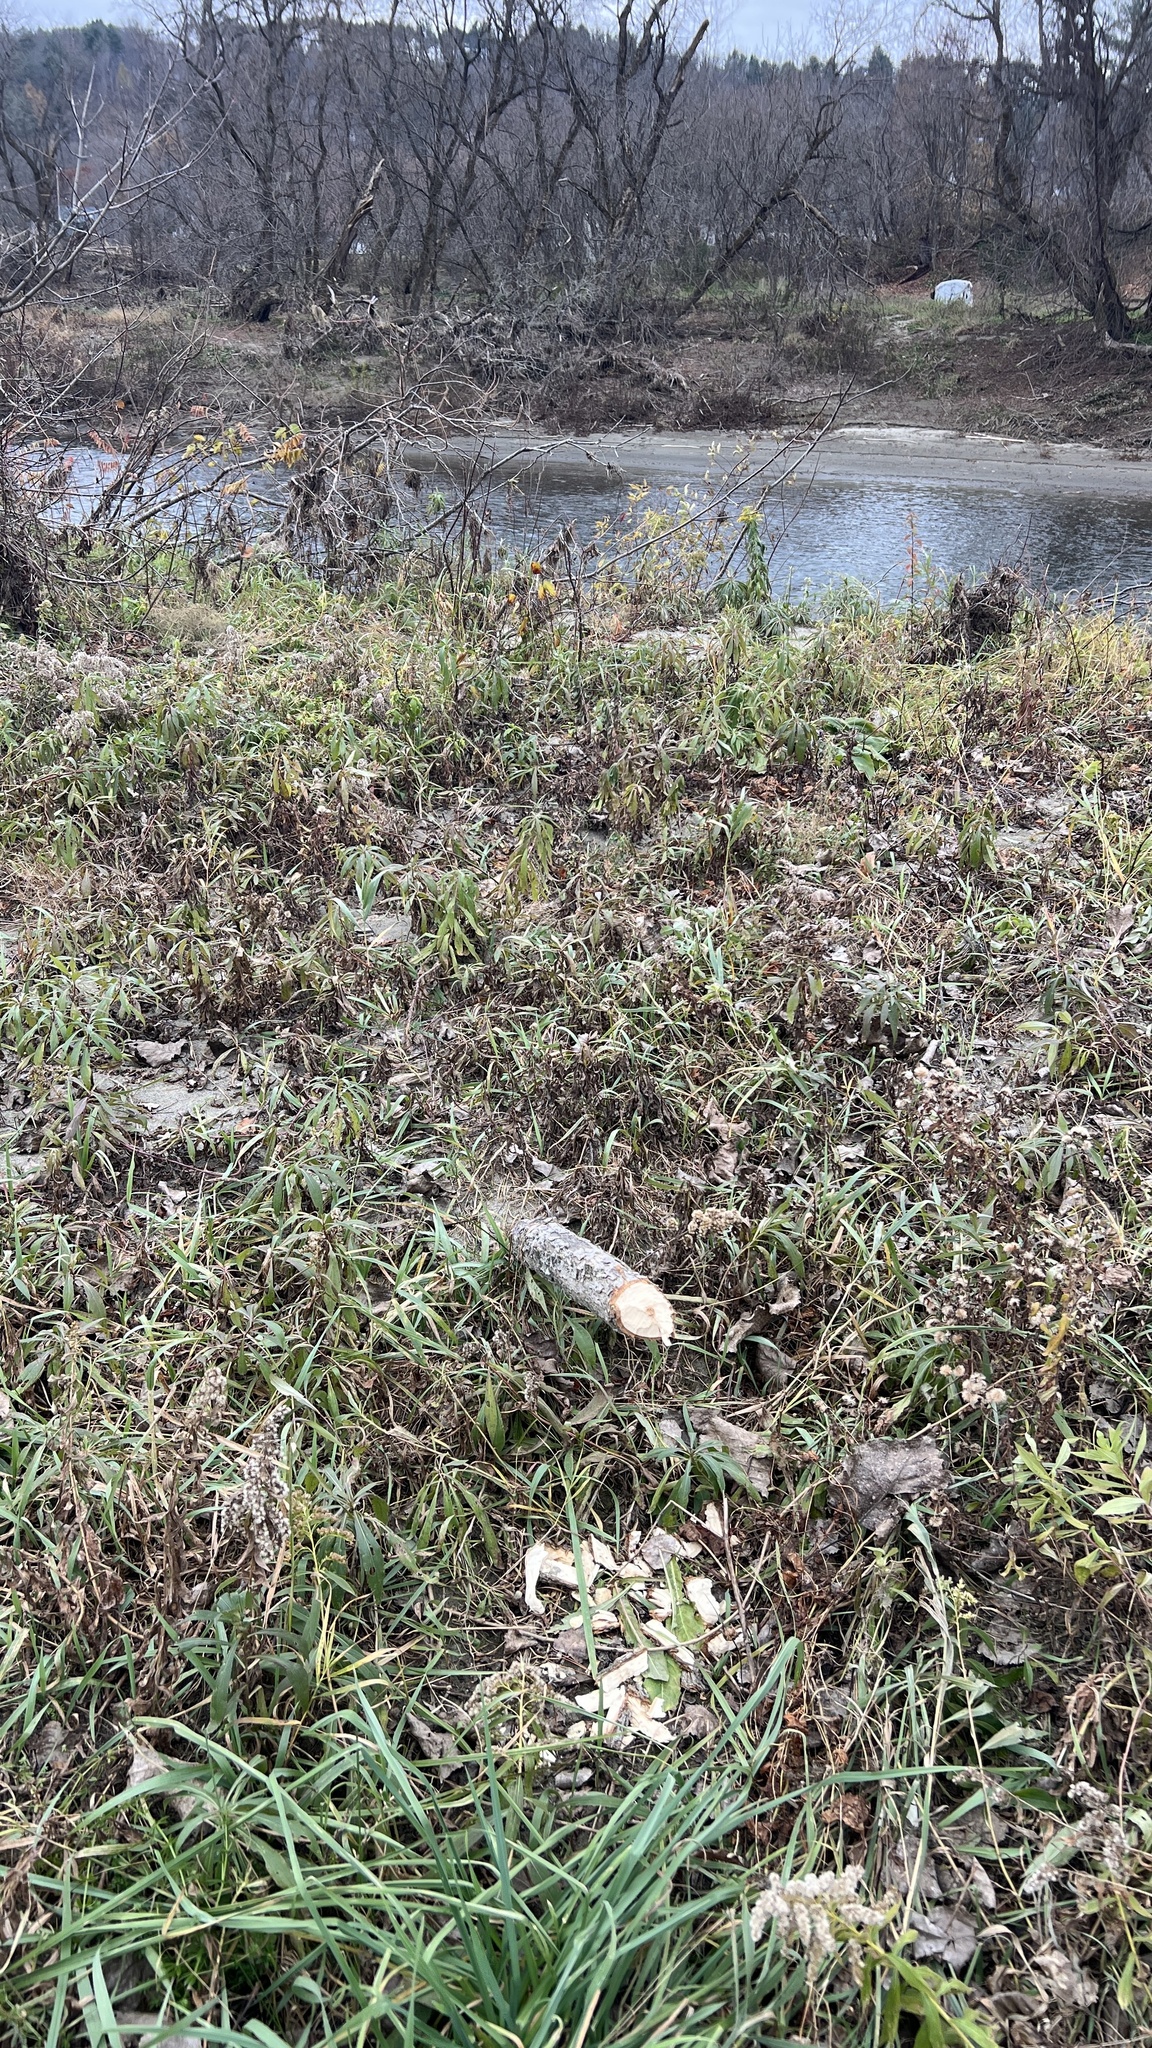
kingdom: Animalia
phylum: Chordata
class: Mammalia
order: Rodentia
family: Castoridae
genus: Castor
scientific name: Castor canadensis
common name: American beaver
